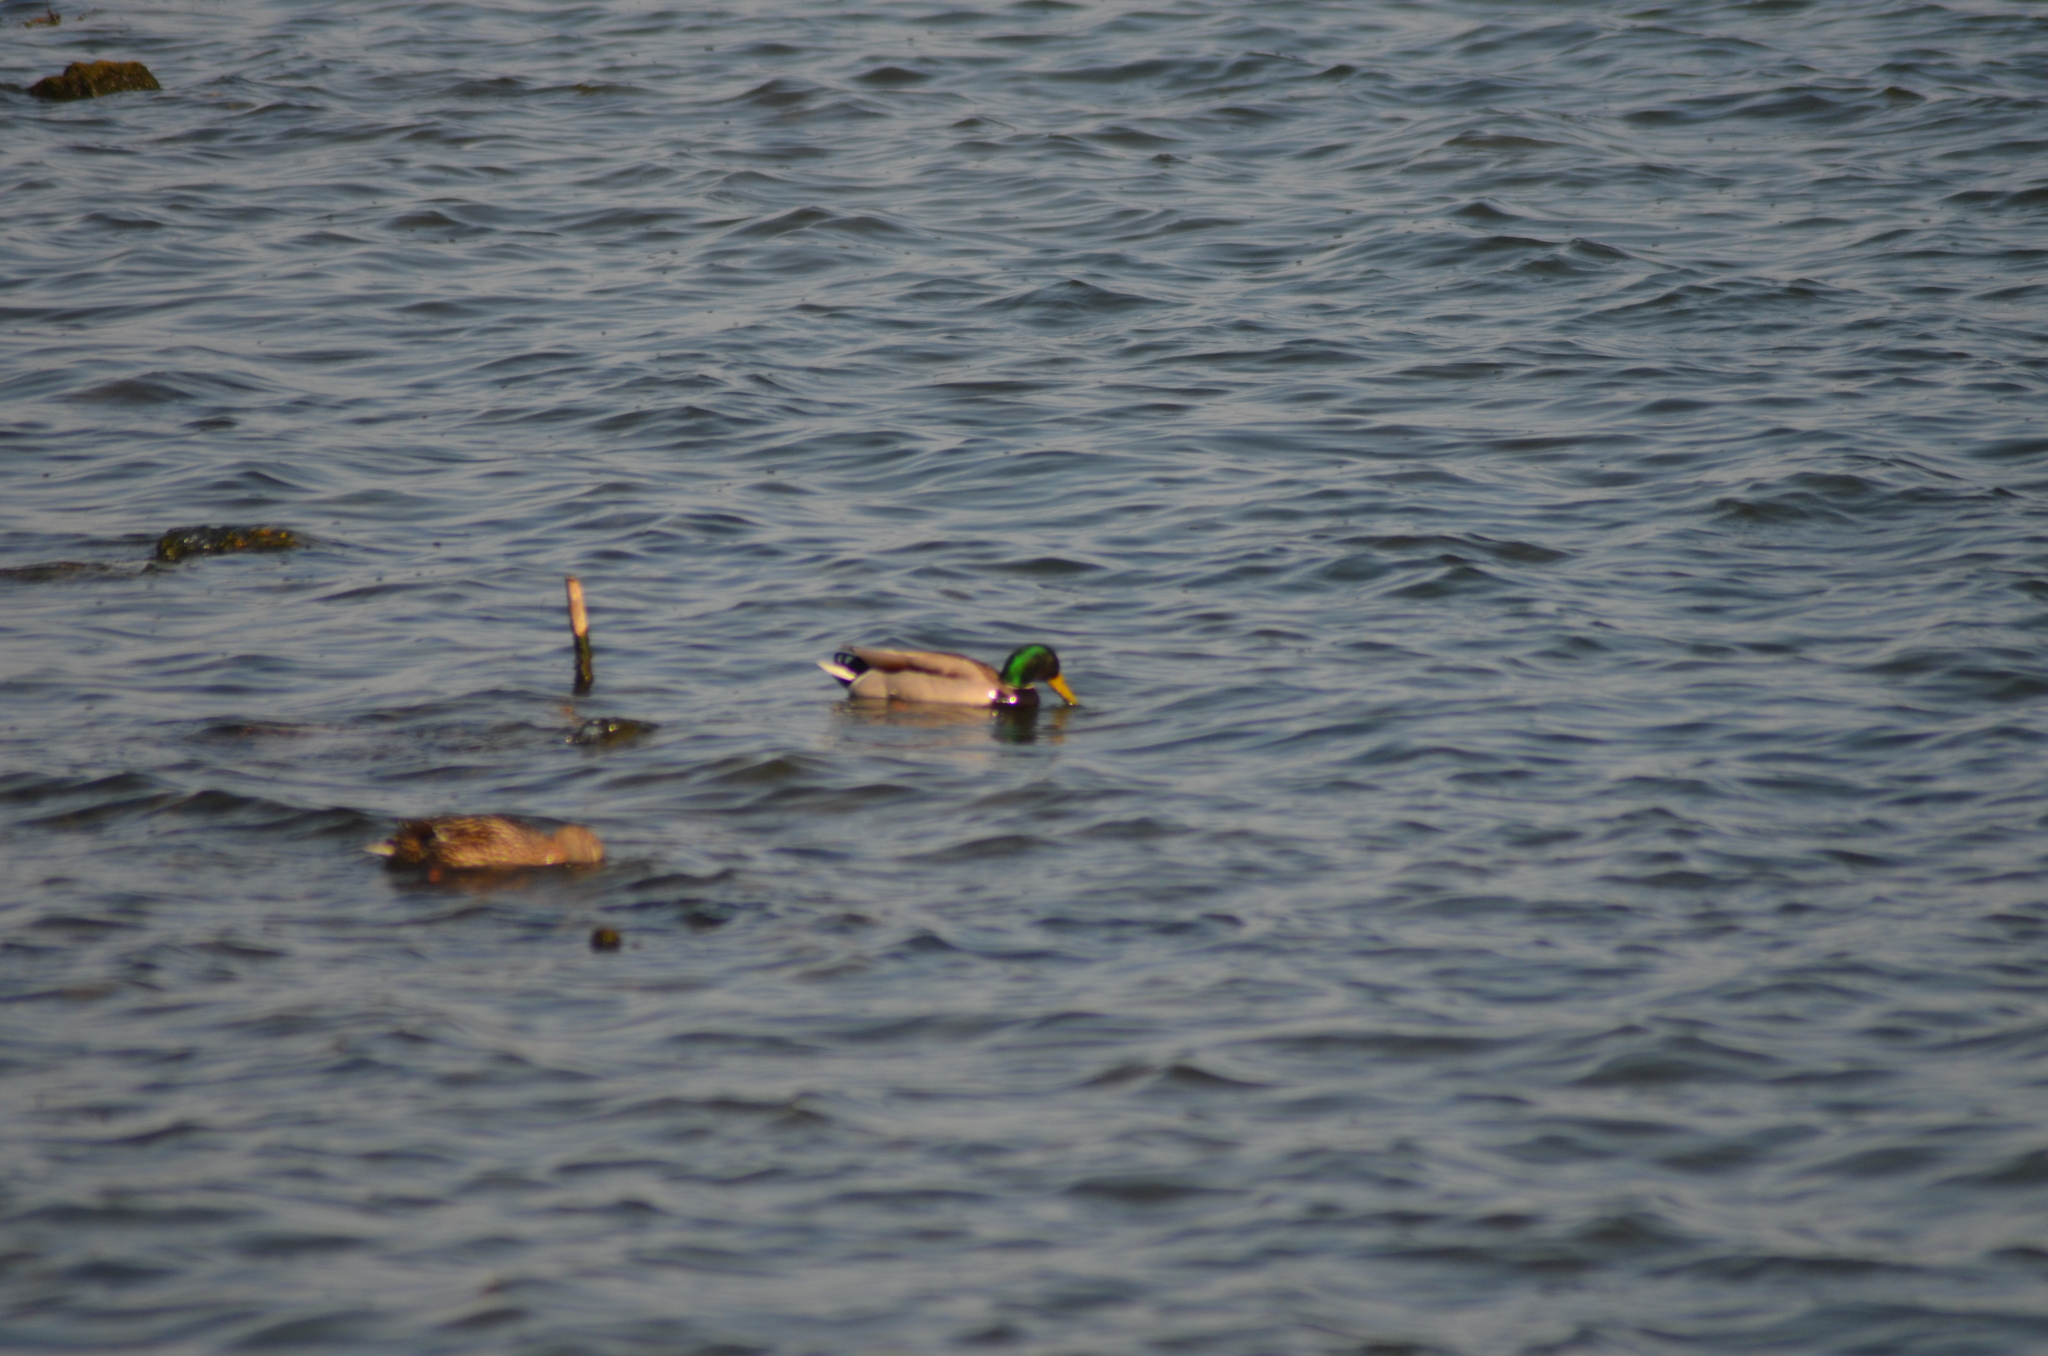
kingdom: Animalia
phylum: Chordata
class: Aves
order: Anseriformes
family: Anatidae
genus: Anas
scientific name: Anas platyrhynchos
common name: Mallard
